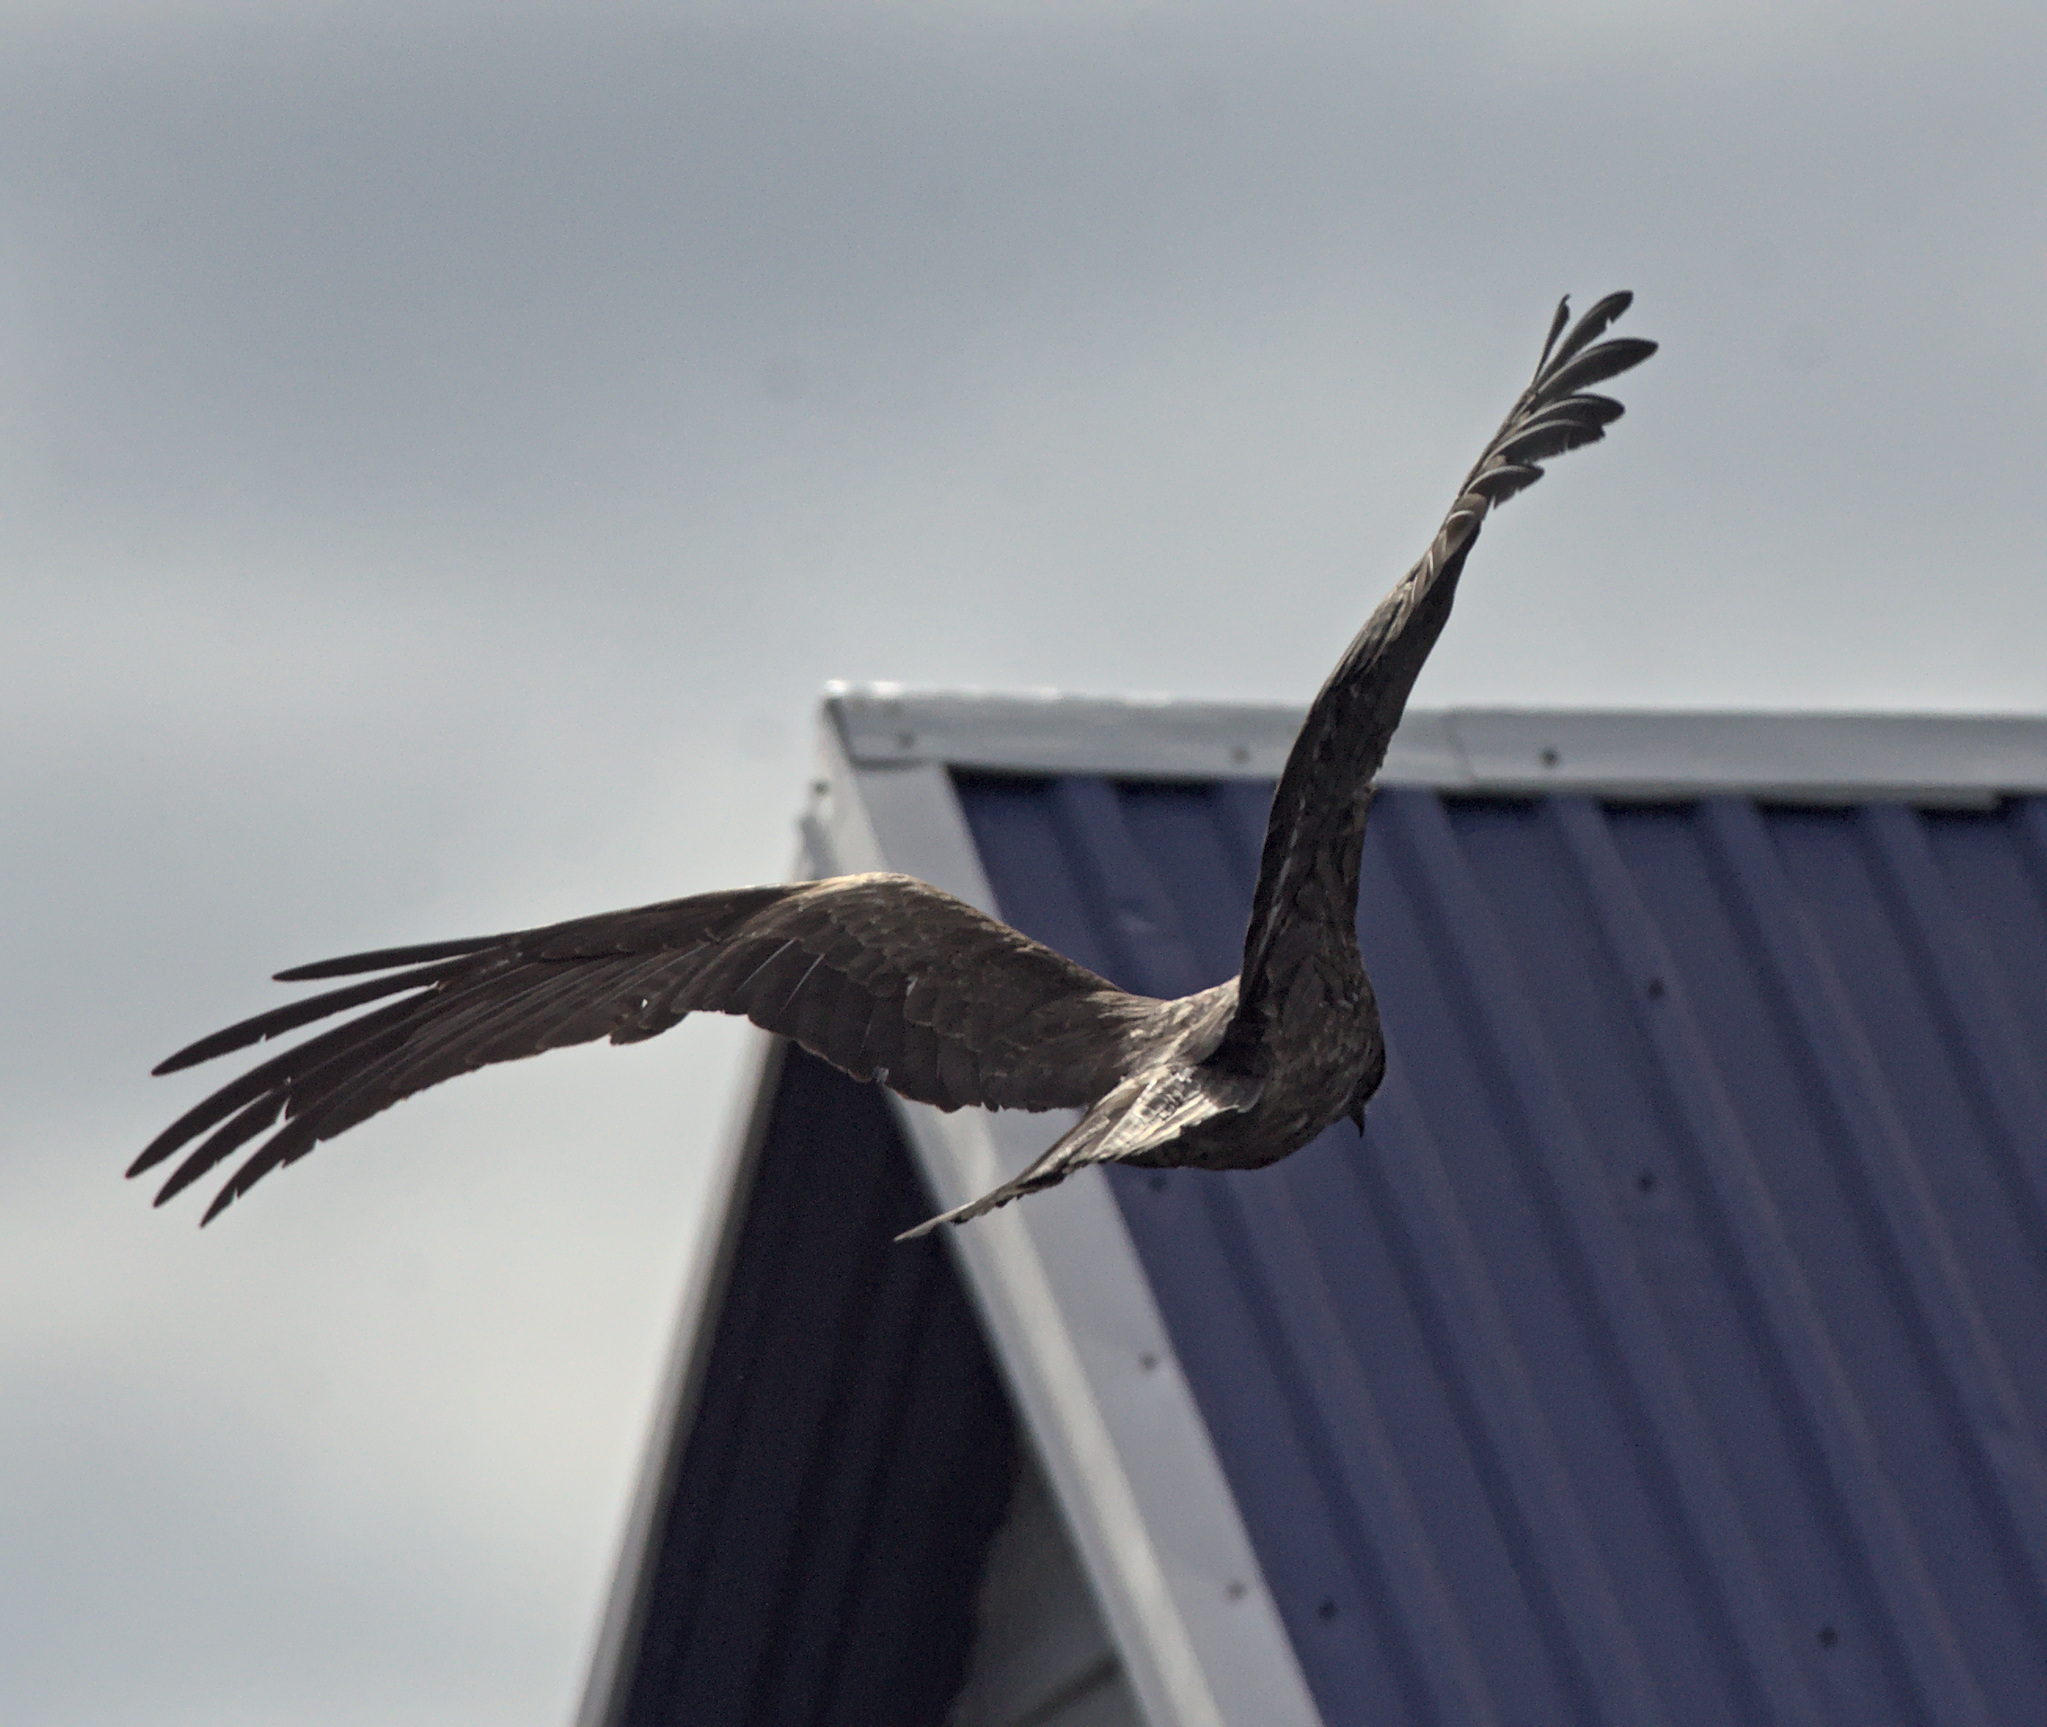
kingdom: Animalia
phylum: Chordata
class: Aves
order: Accipitriformes
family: Accipitridae
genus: Milvus
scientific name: Milvus migrans
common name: Black kite
